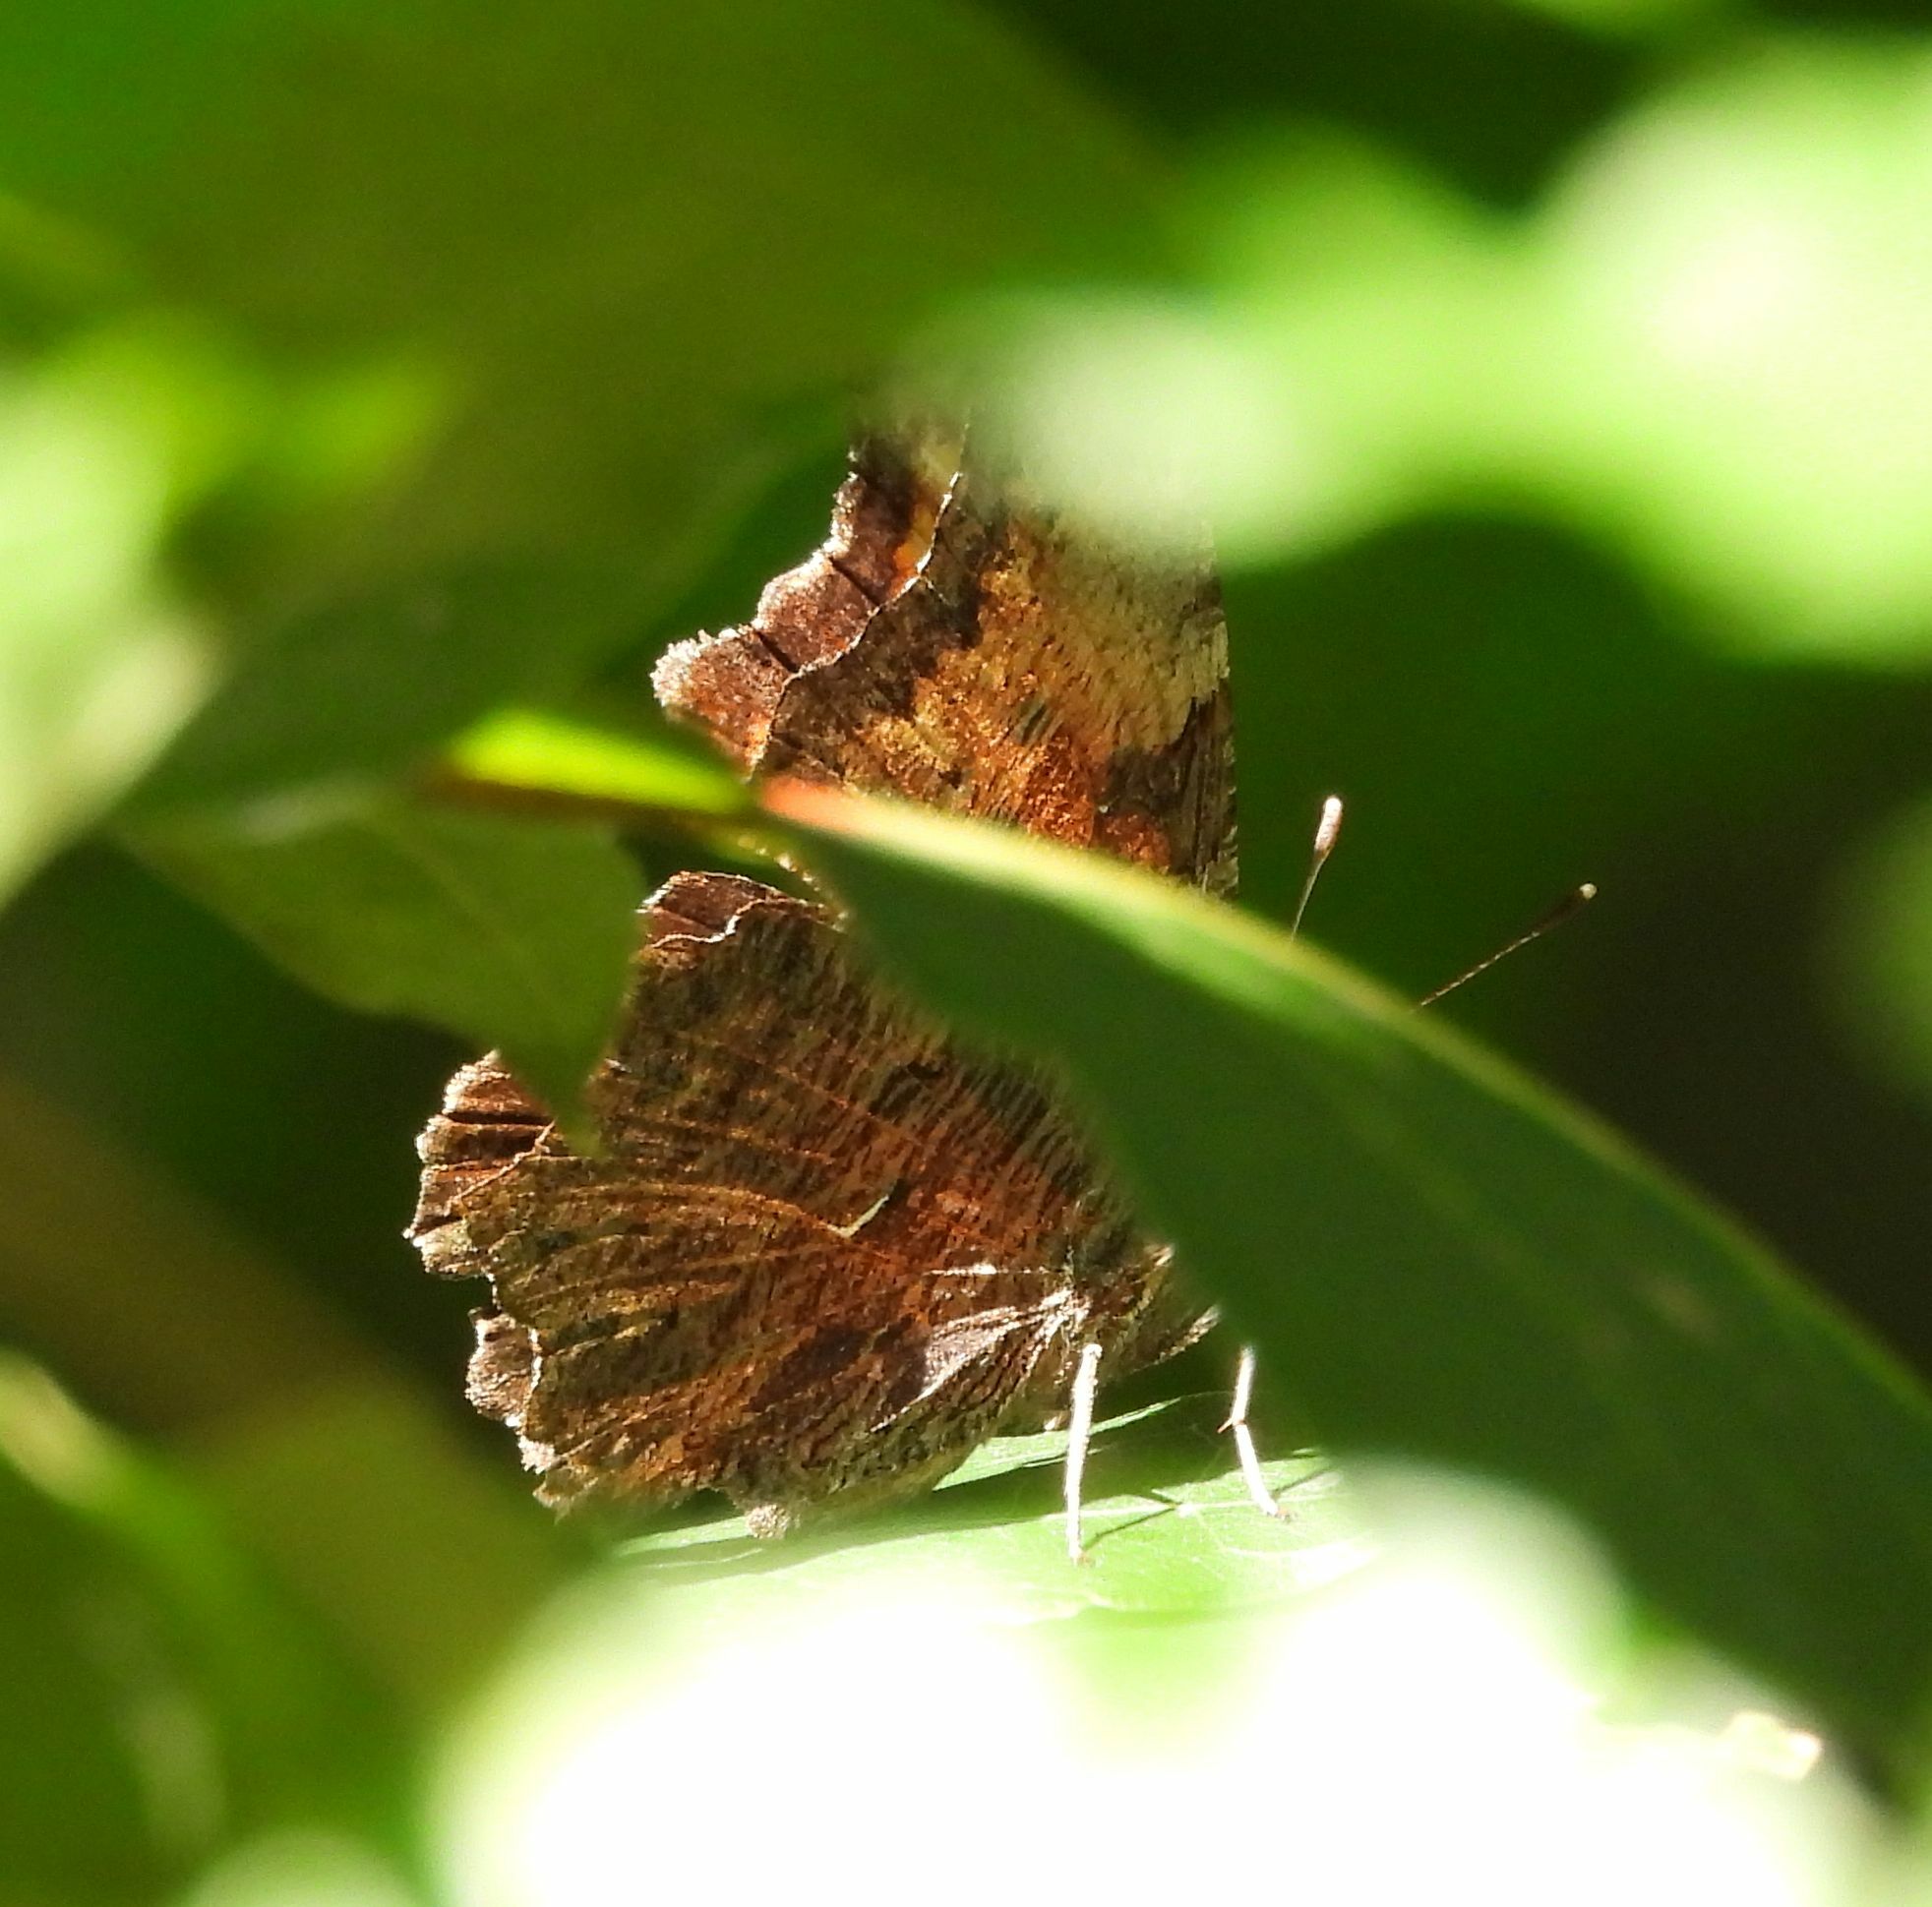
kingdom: Animalia
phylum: Arthropoda
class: Insecta
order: Lepidoptera
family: Nymphalidae
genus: Polygonia
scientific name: Polygonia progne
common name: Gray comma
